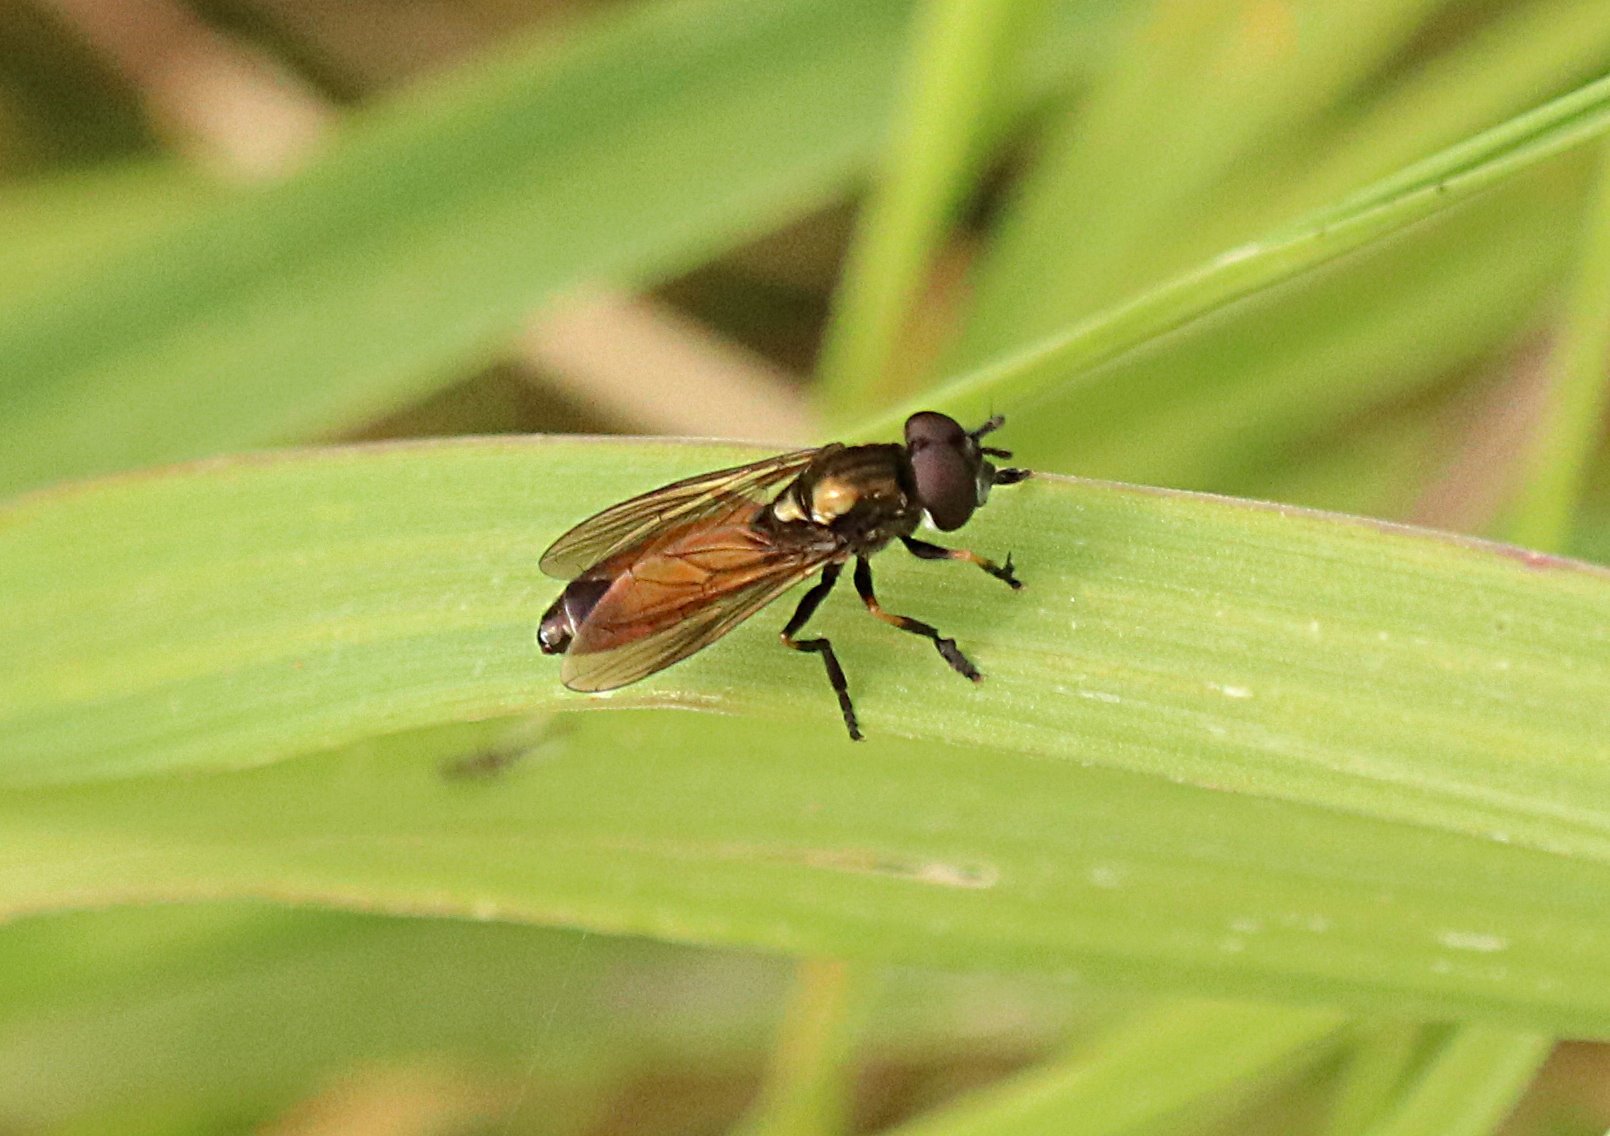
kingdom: Animalia
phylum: Arthropoda
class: Insecta
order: Diptera
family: Syrphidae
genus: Pyrophaena
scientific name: Pyrophaena granditarsa
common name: Hornhand sedgesitter
